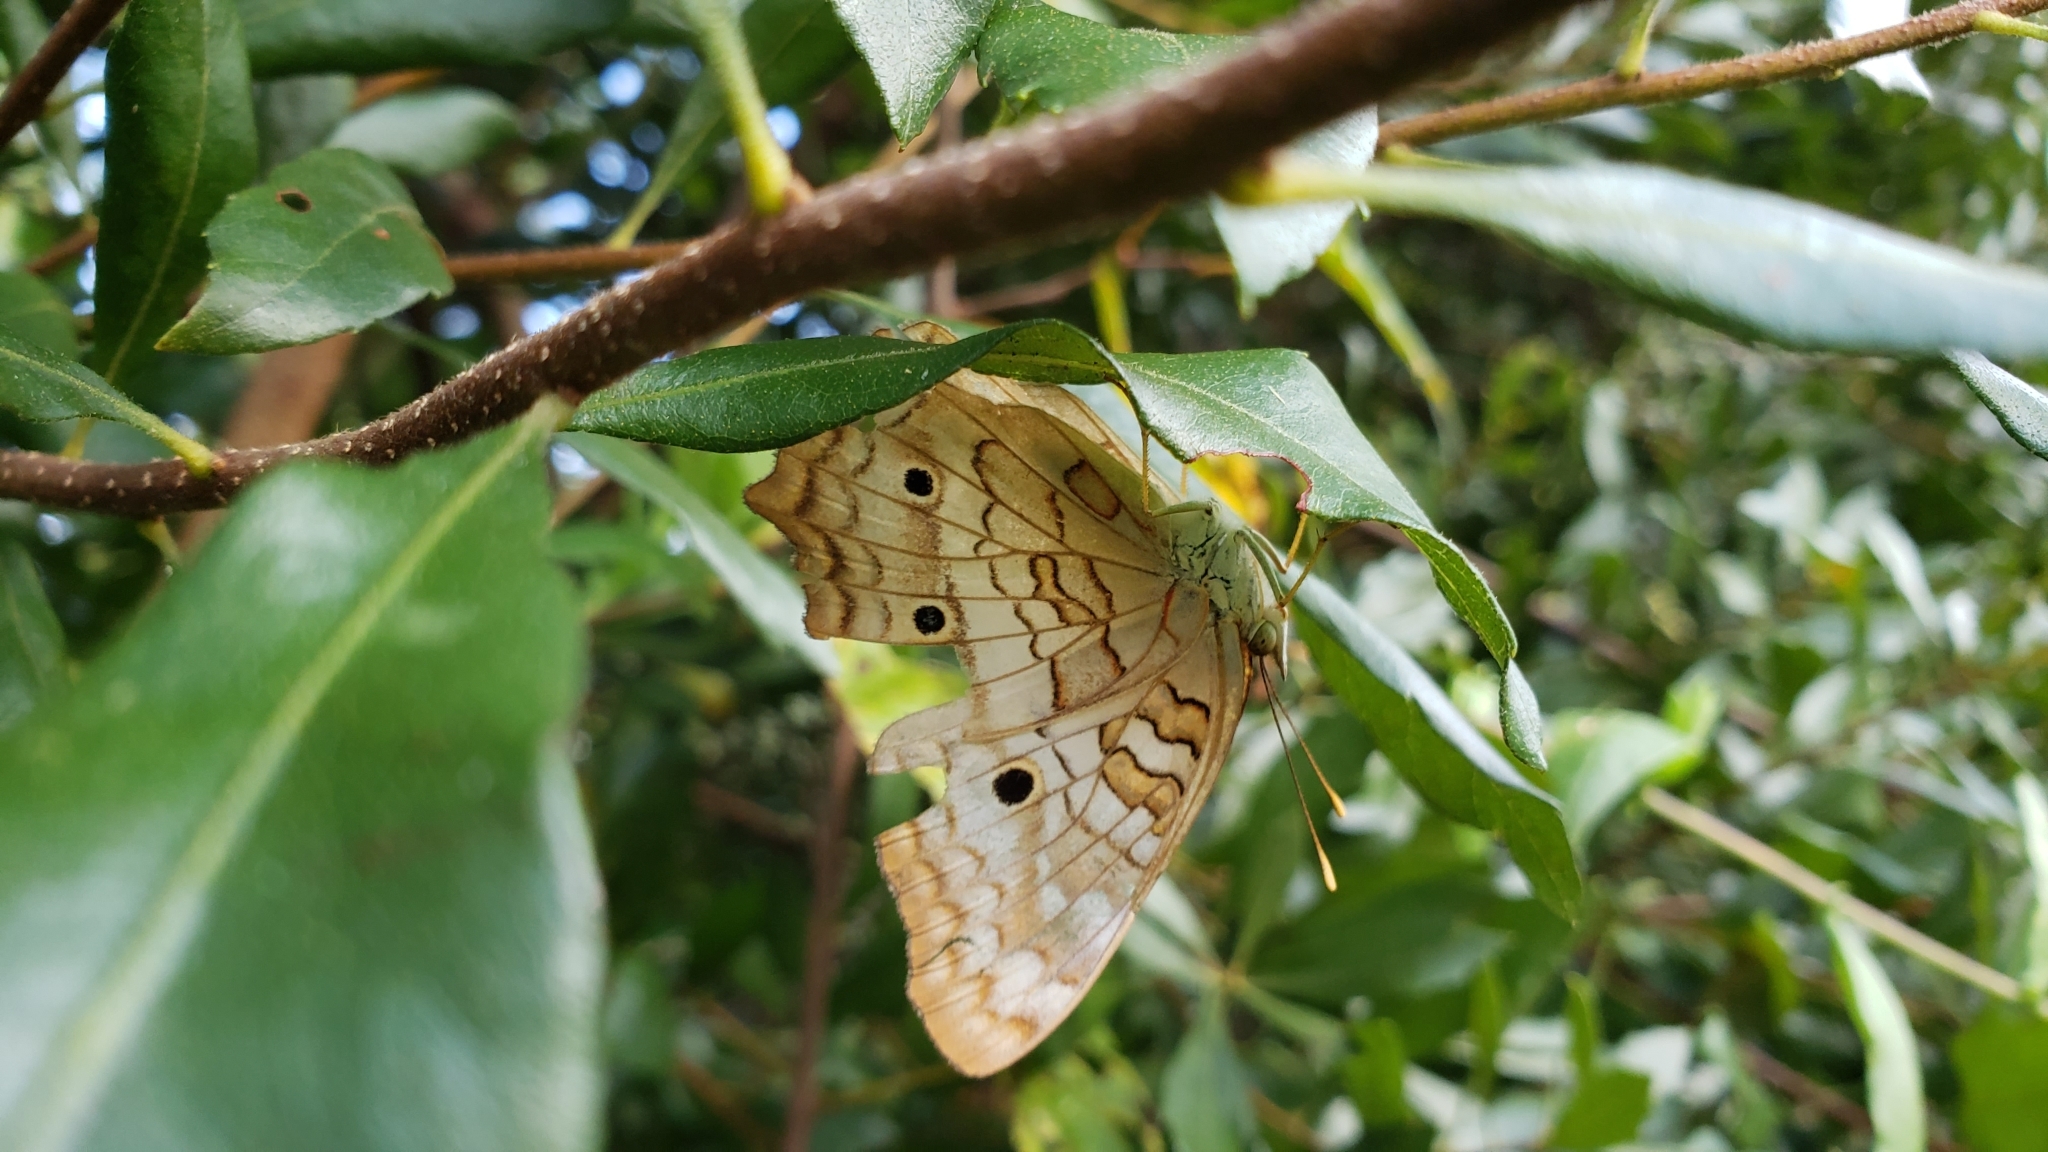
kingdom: Animalia
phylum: Arthropoda
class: Insecta
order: Lepidoptera
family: Nymphalidae
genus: Anartia
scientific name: Anartia jatrophae
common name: White peacock
